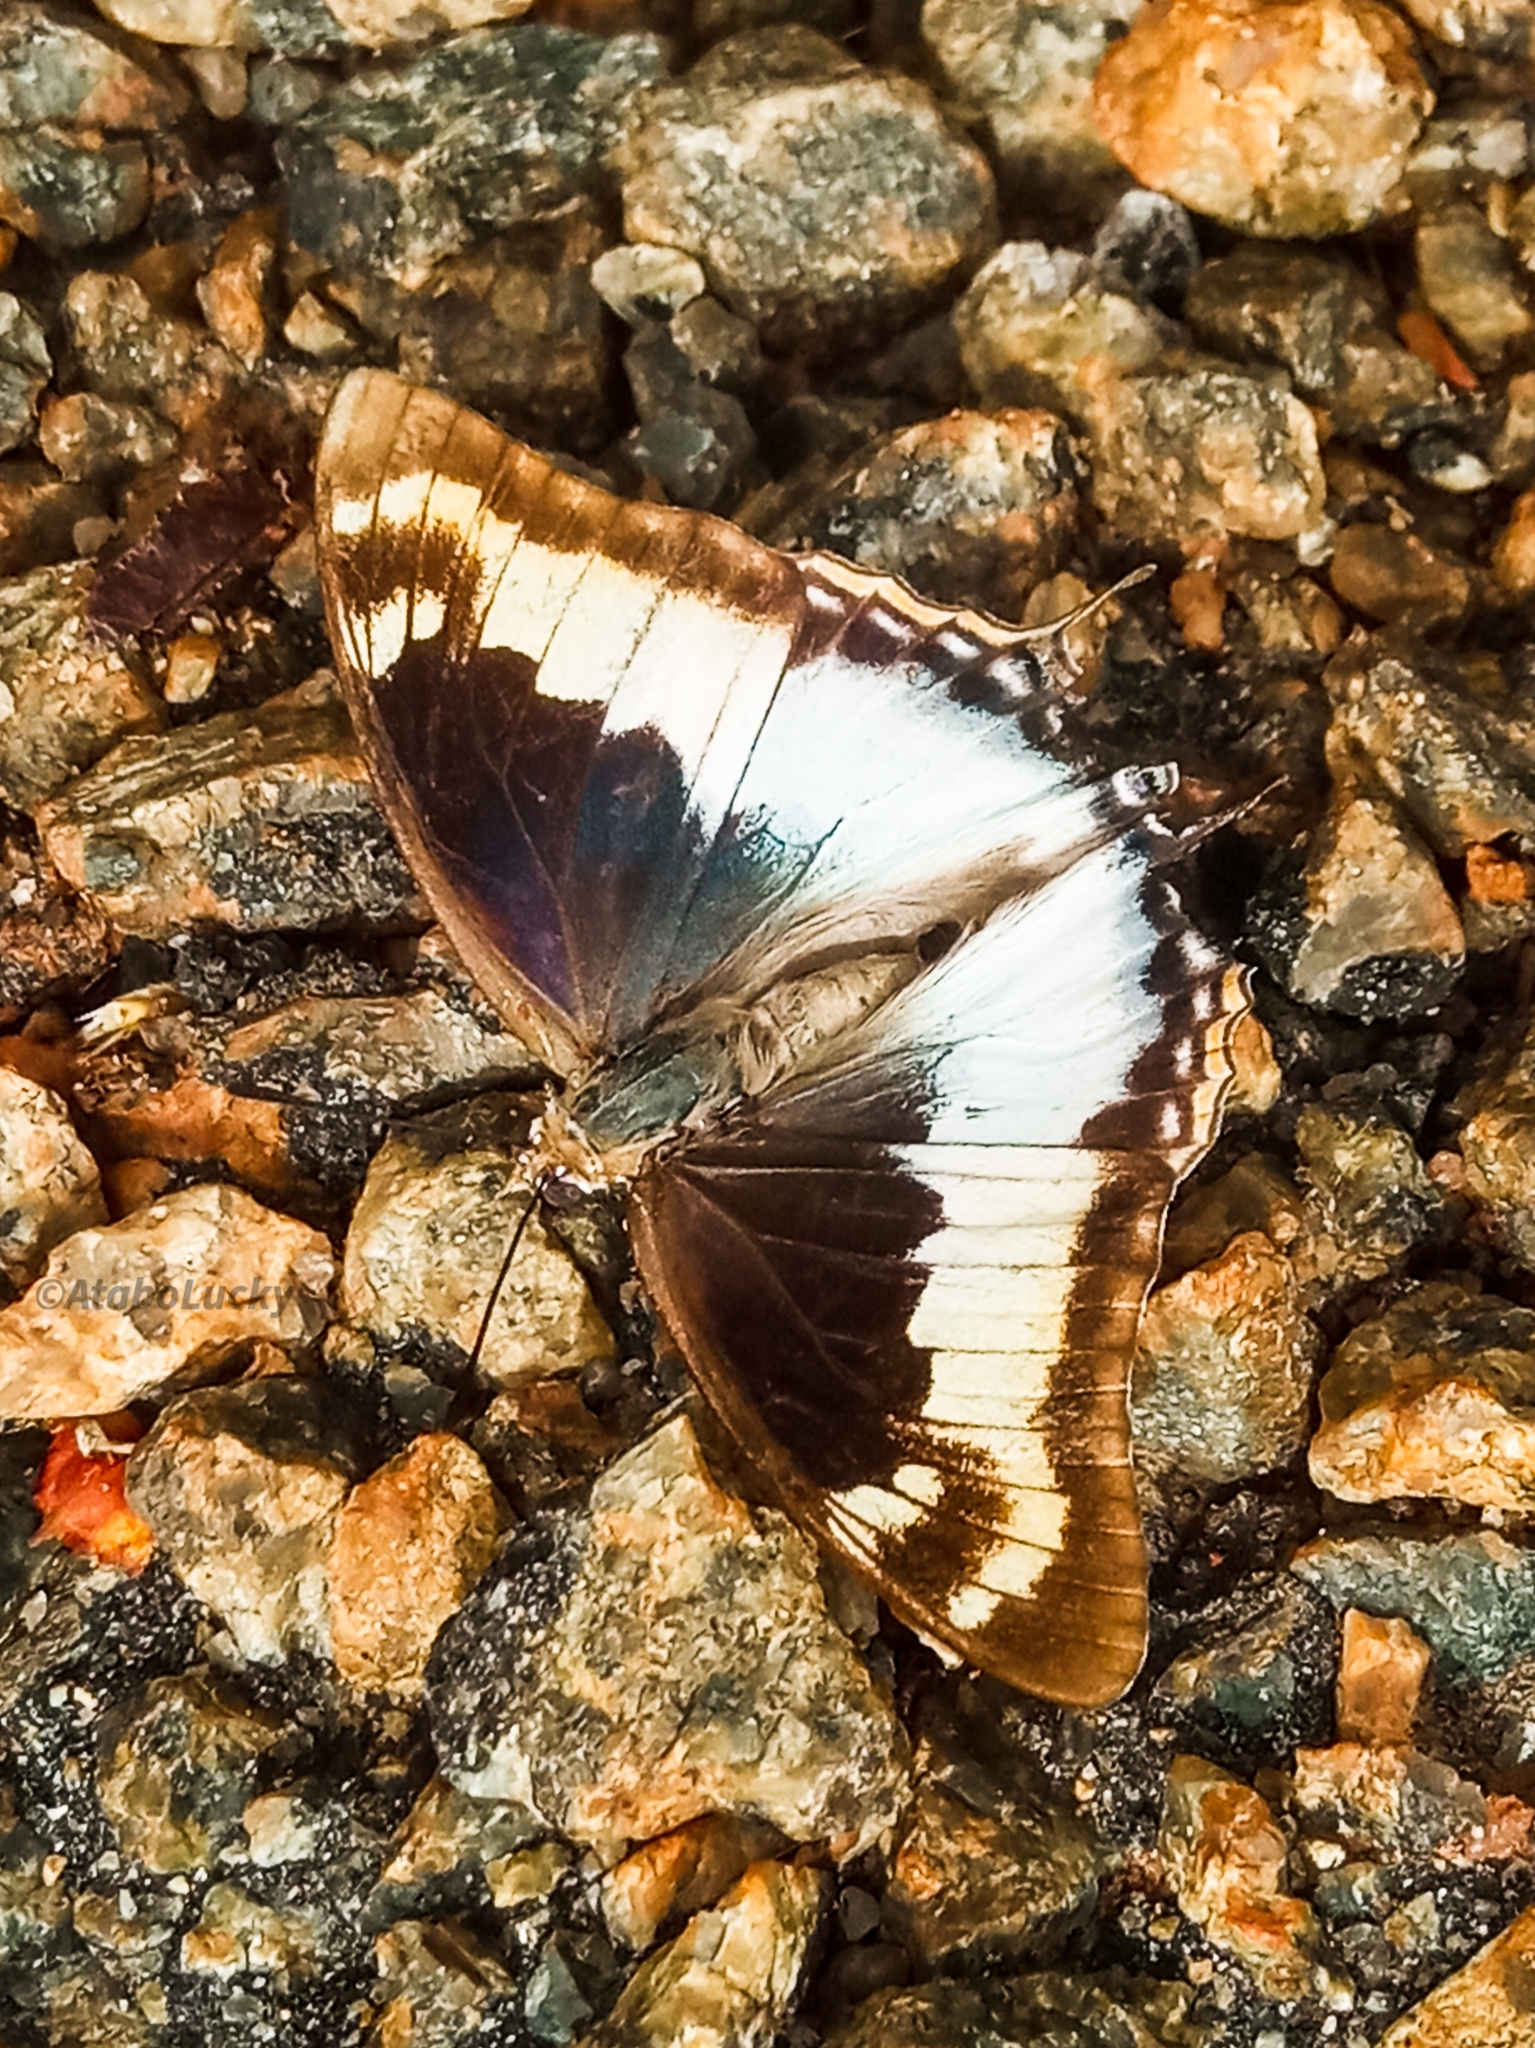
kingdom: Animalia
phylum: Arthropoda
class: Insecta
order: Lepidoptera
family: Nymphalidae
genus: Charaxes
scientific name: Charaxes viola
